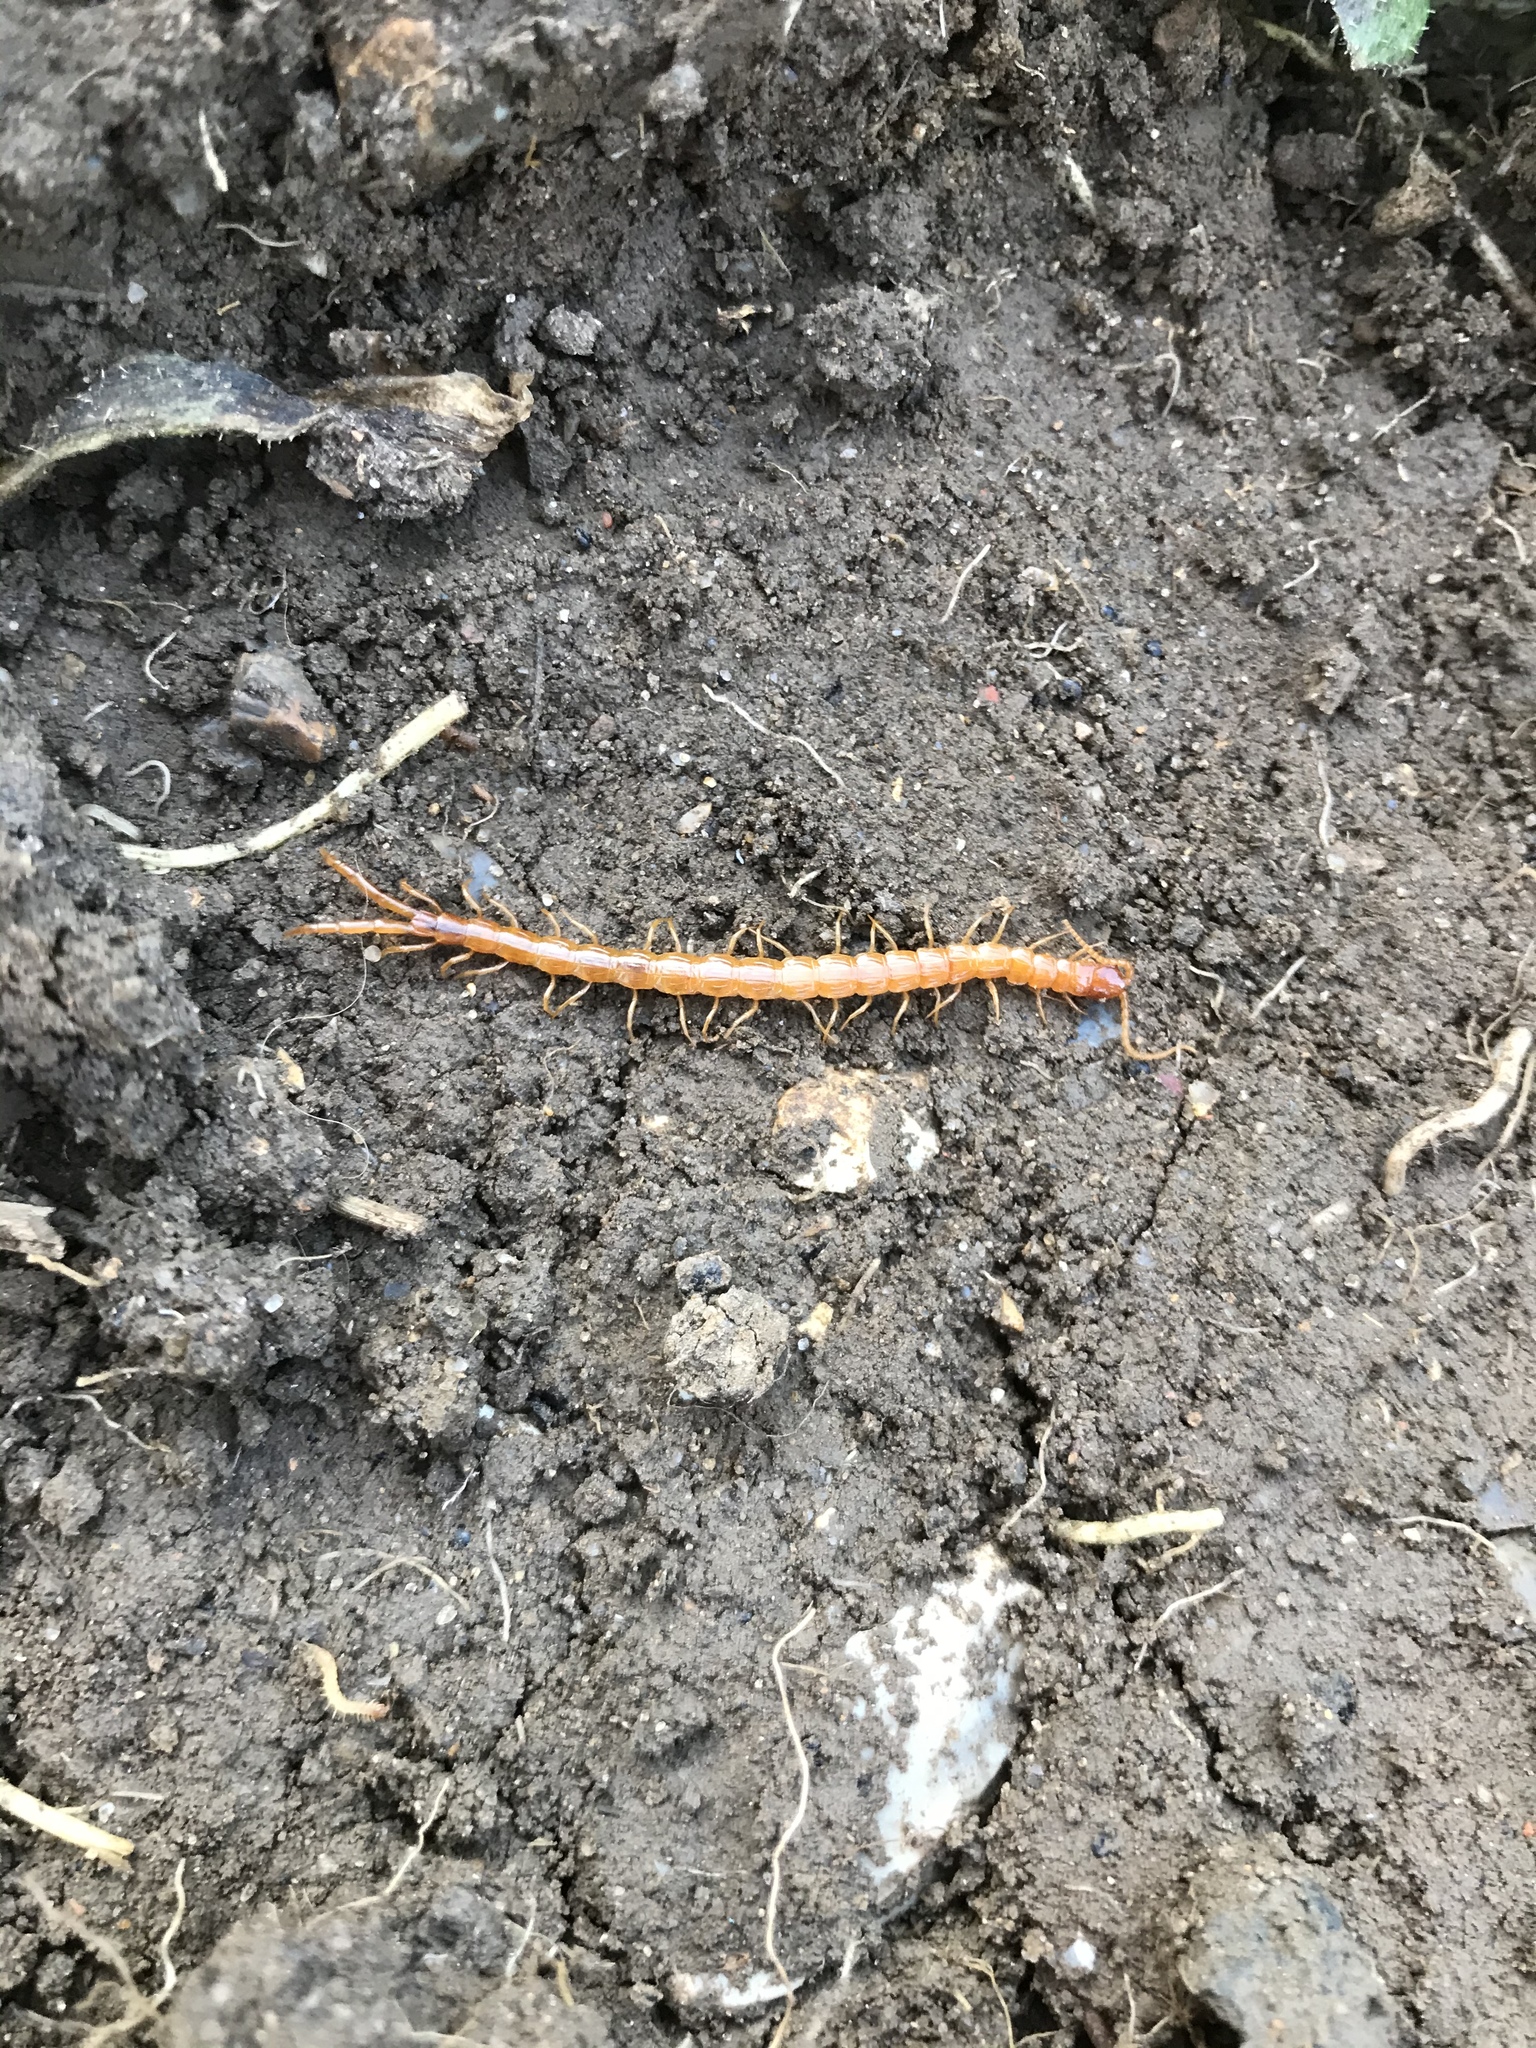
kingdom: Animalia
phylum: Arthropoda
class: Chilopoda
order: Scolopendromorpha
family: Cryptopidae
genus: Cryptops
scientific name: Cryptops
